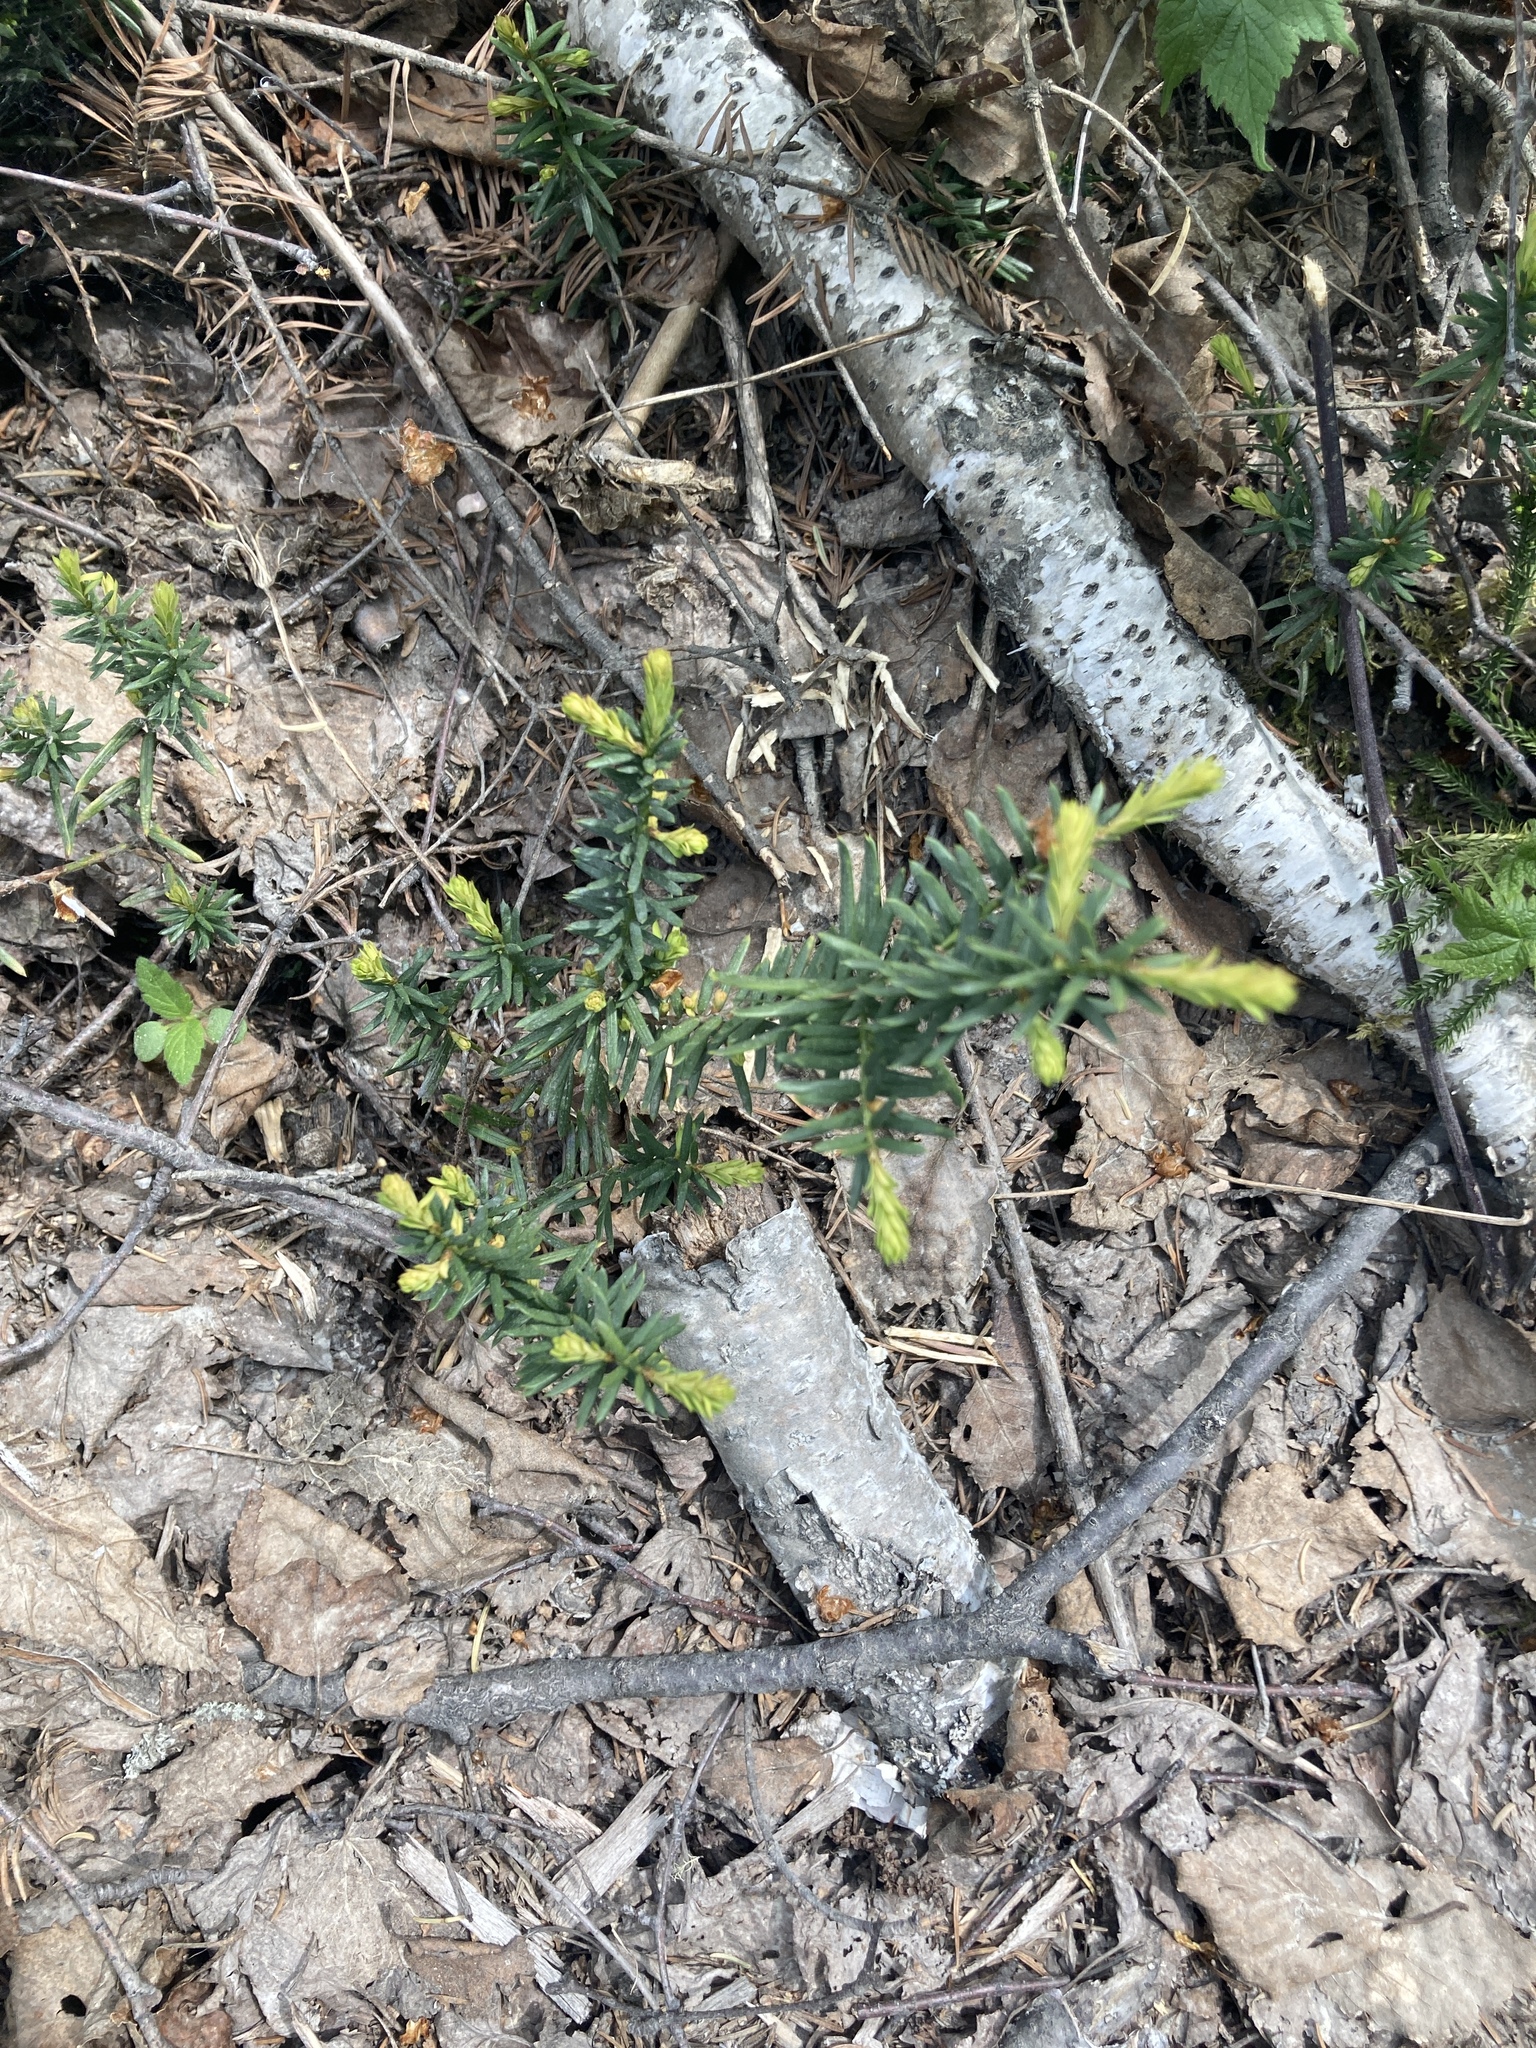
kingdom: Plantae
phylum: Tracheophyta
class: Pinopsida
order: Pinales
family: Taxaceae
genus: Taxus
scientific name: Taxus canadensis
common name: American yew
